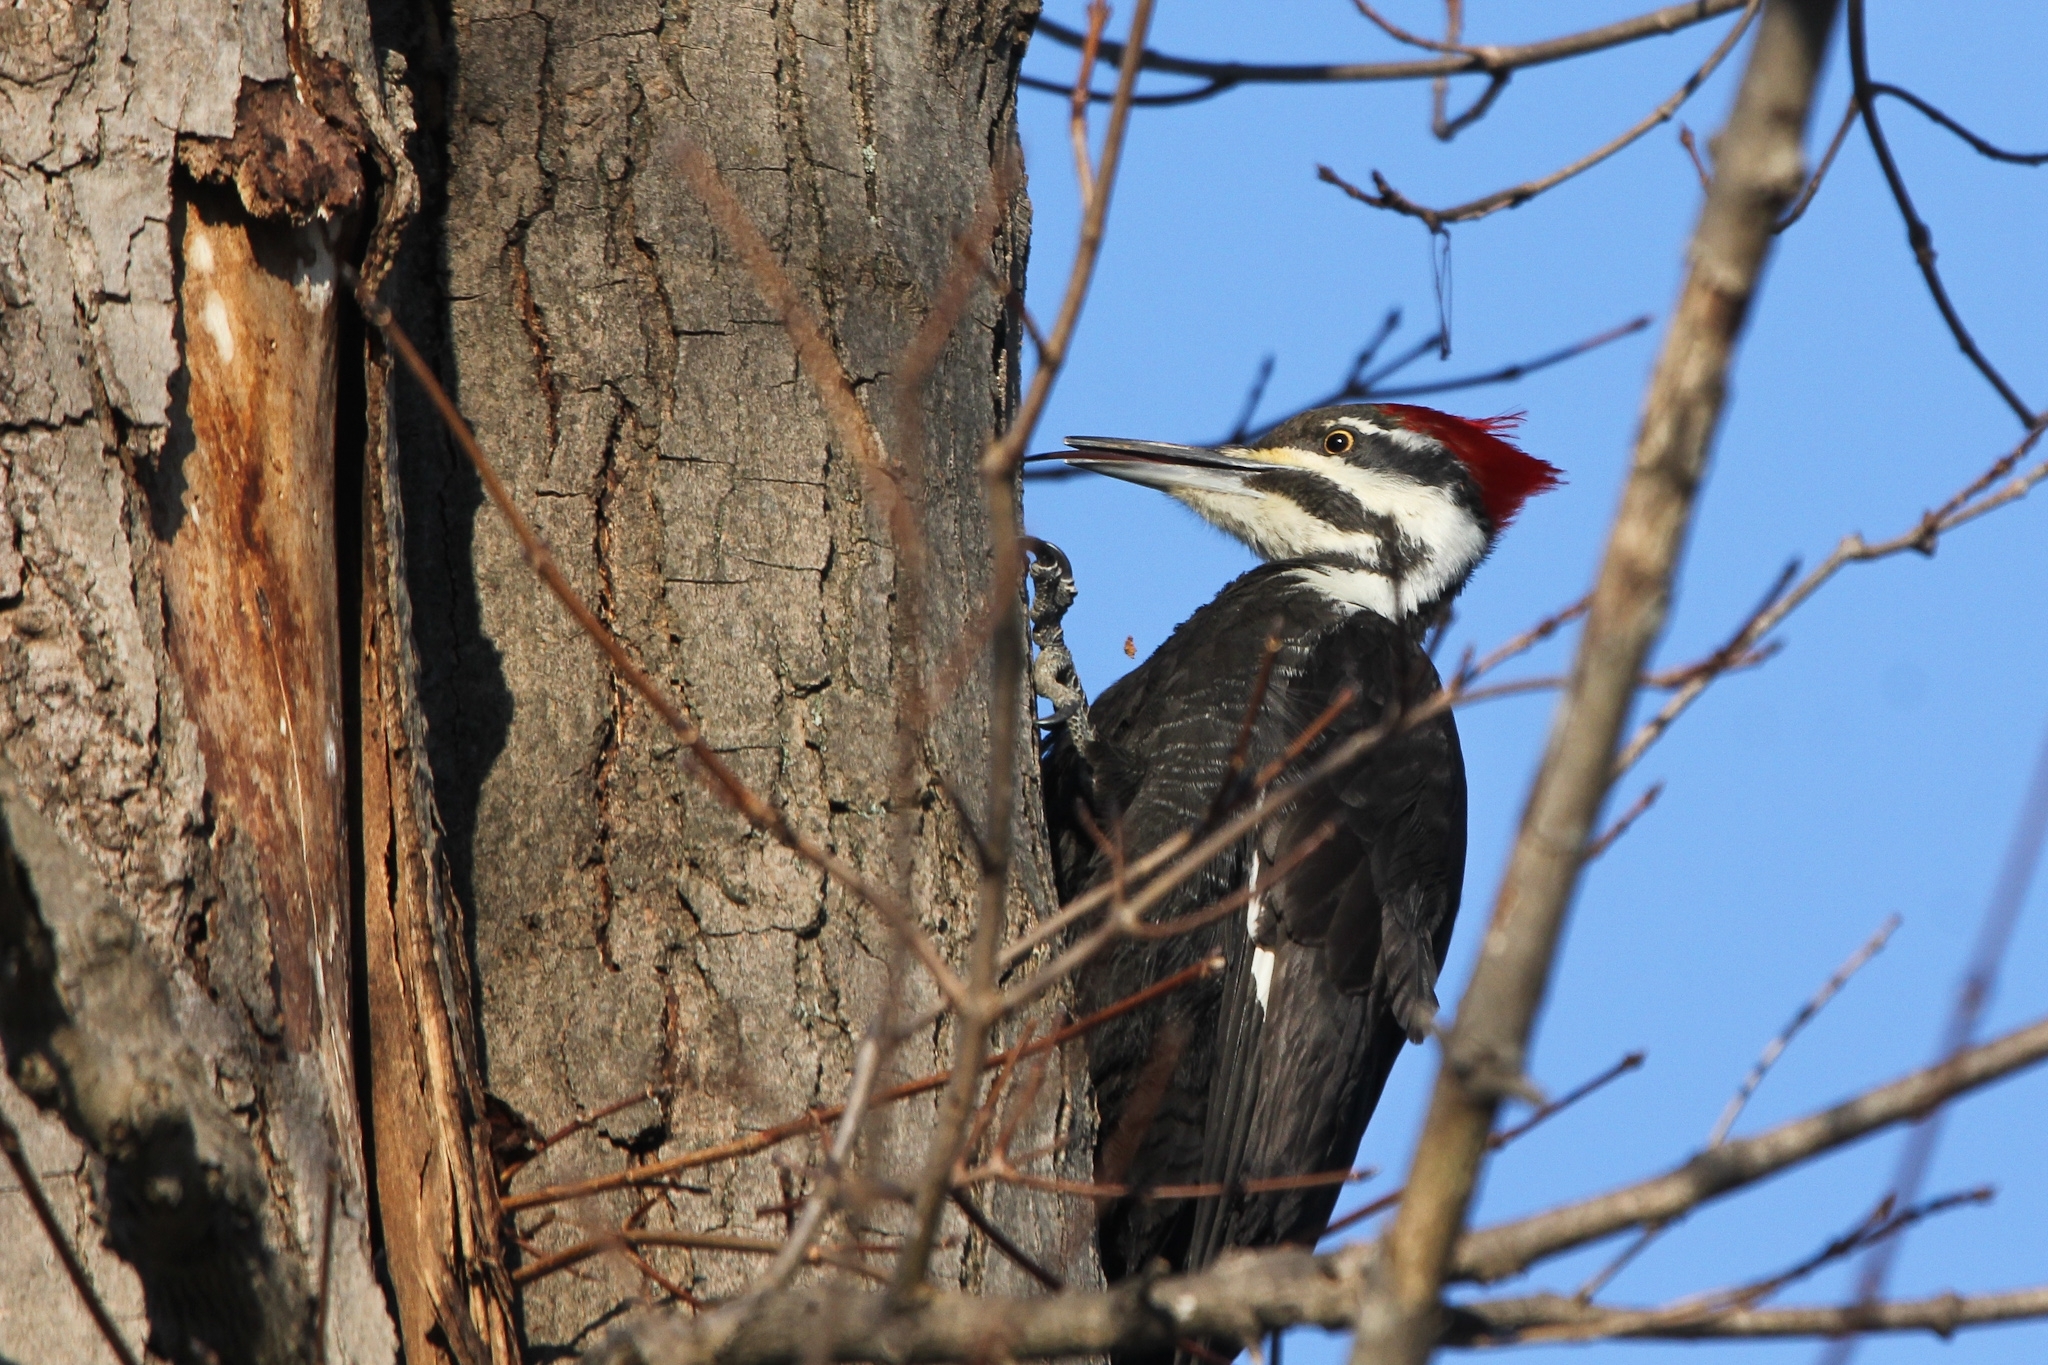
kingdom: Animalia
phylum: Chordata
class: Aves
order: Piciformes
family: Picidae
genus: Dryocopus
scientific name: Dryocopus pileatus
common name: Pileated woodpecker
